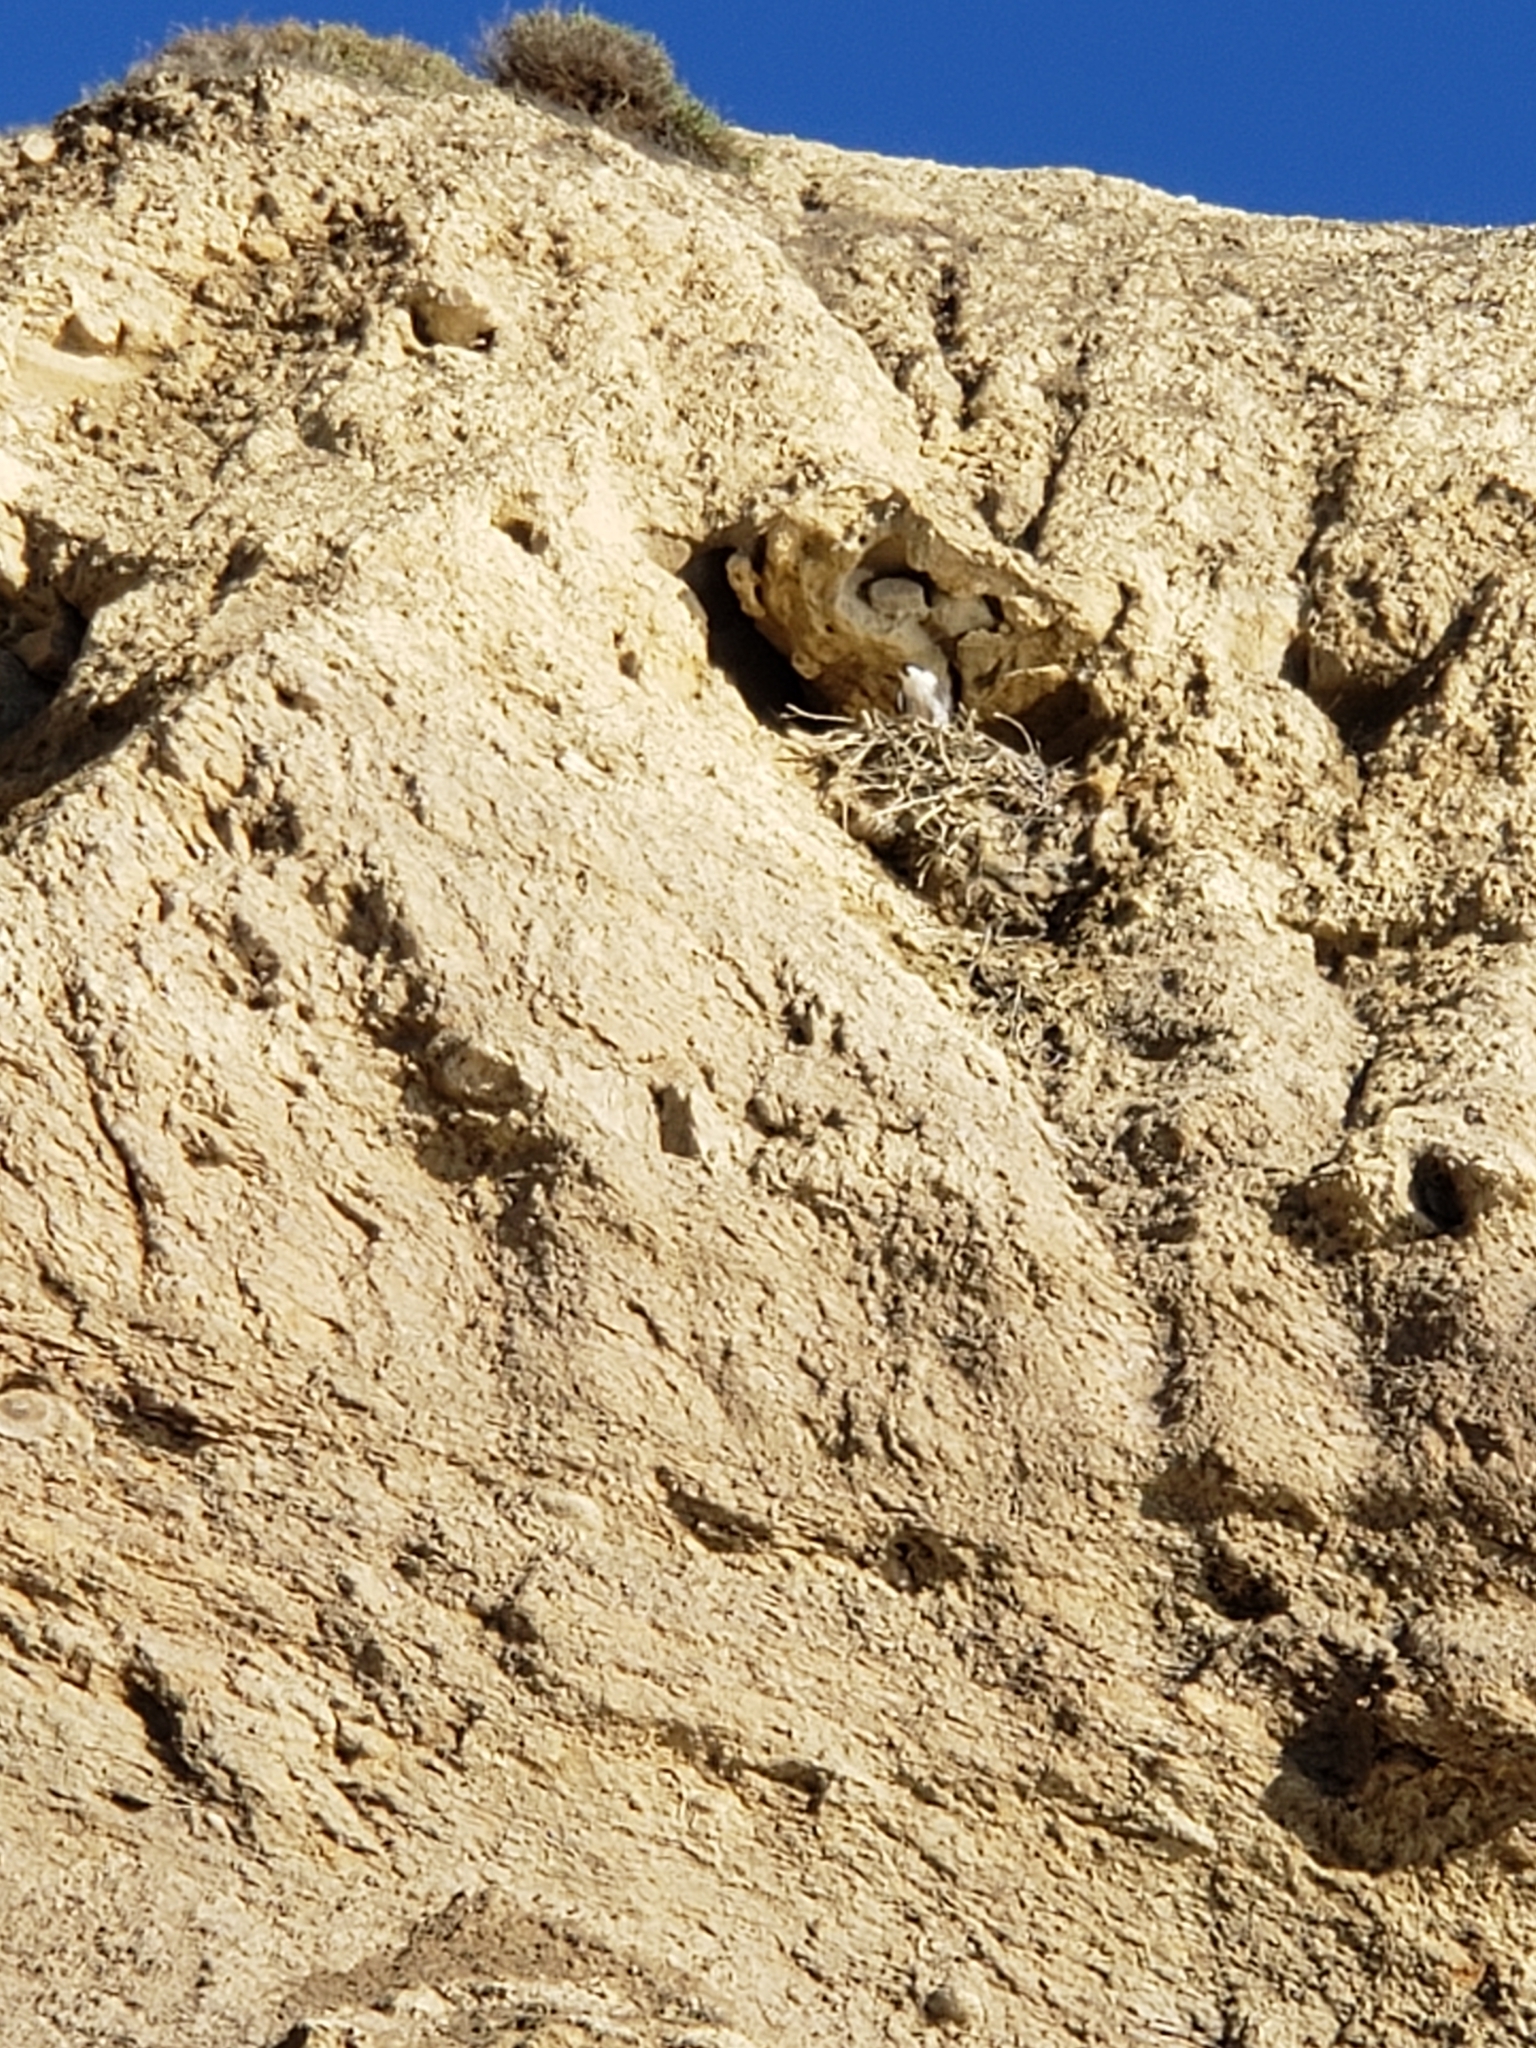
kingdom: Animalia
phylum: Chordata
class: Aves
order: Falconiformes
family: Falconidae
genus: Falco
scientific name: Falco peregrinus
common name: Peregrine falcon
